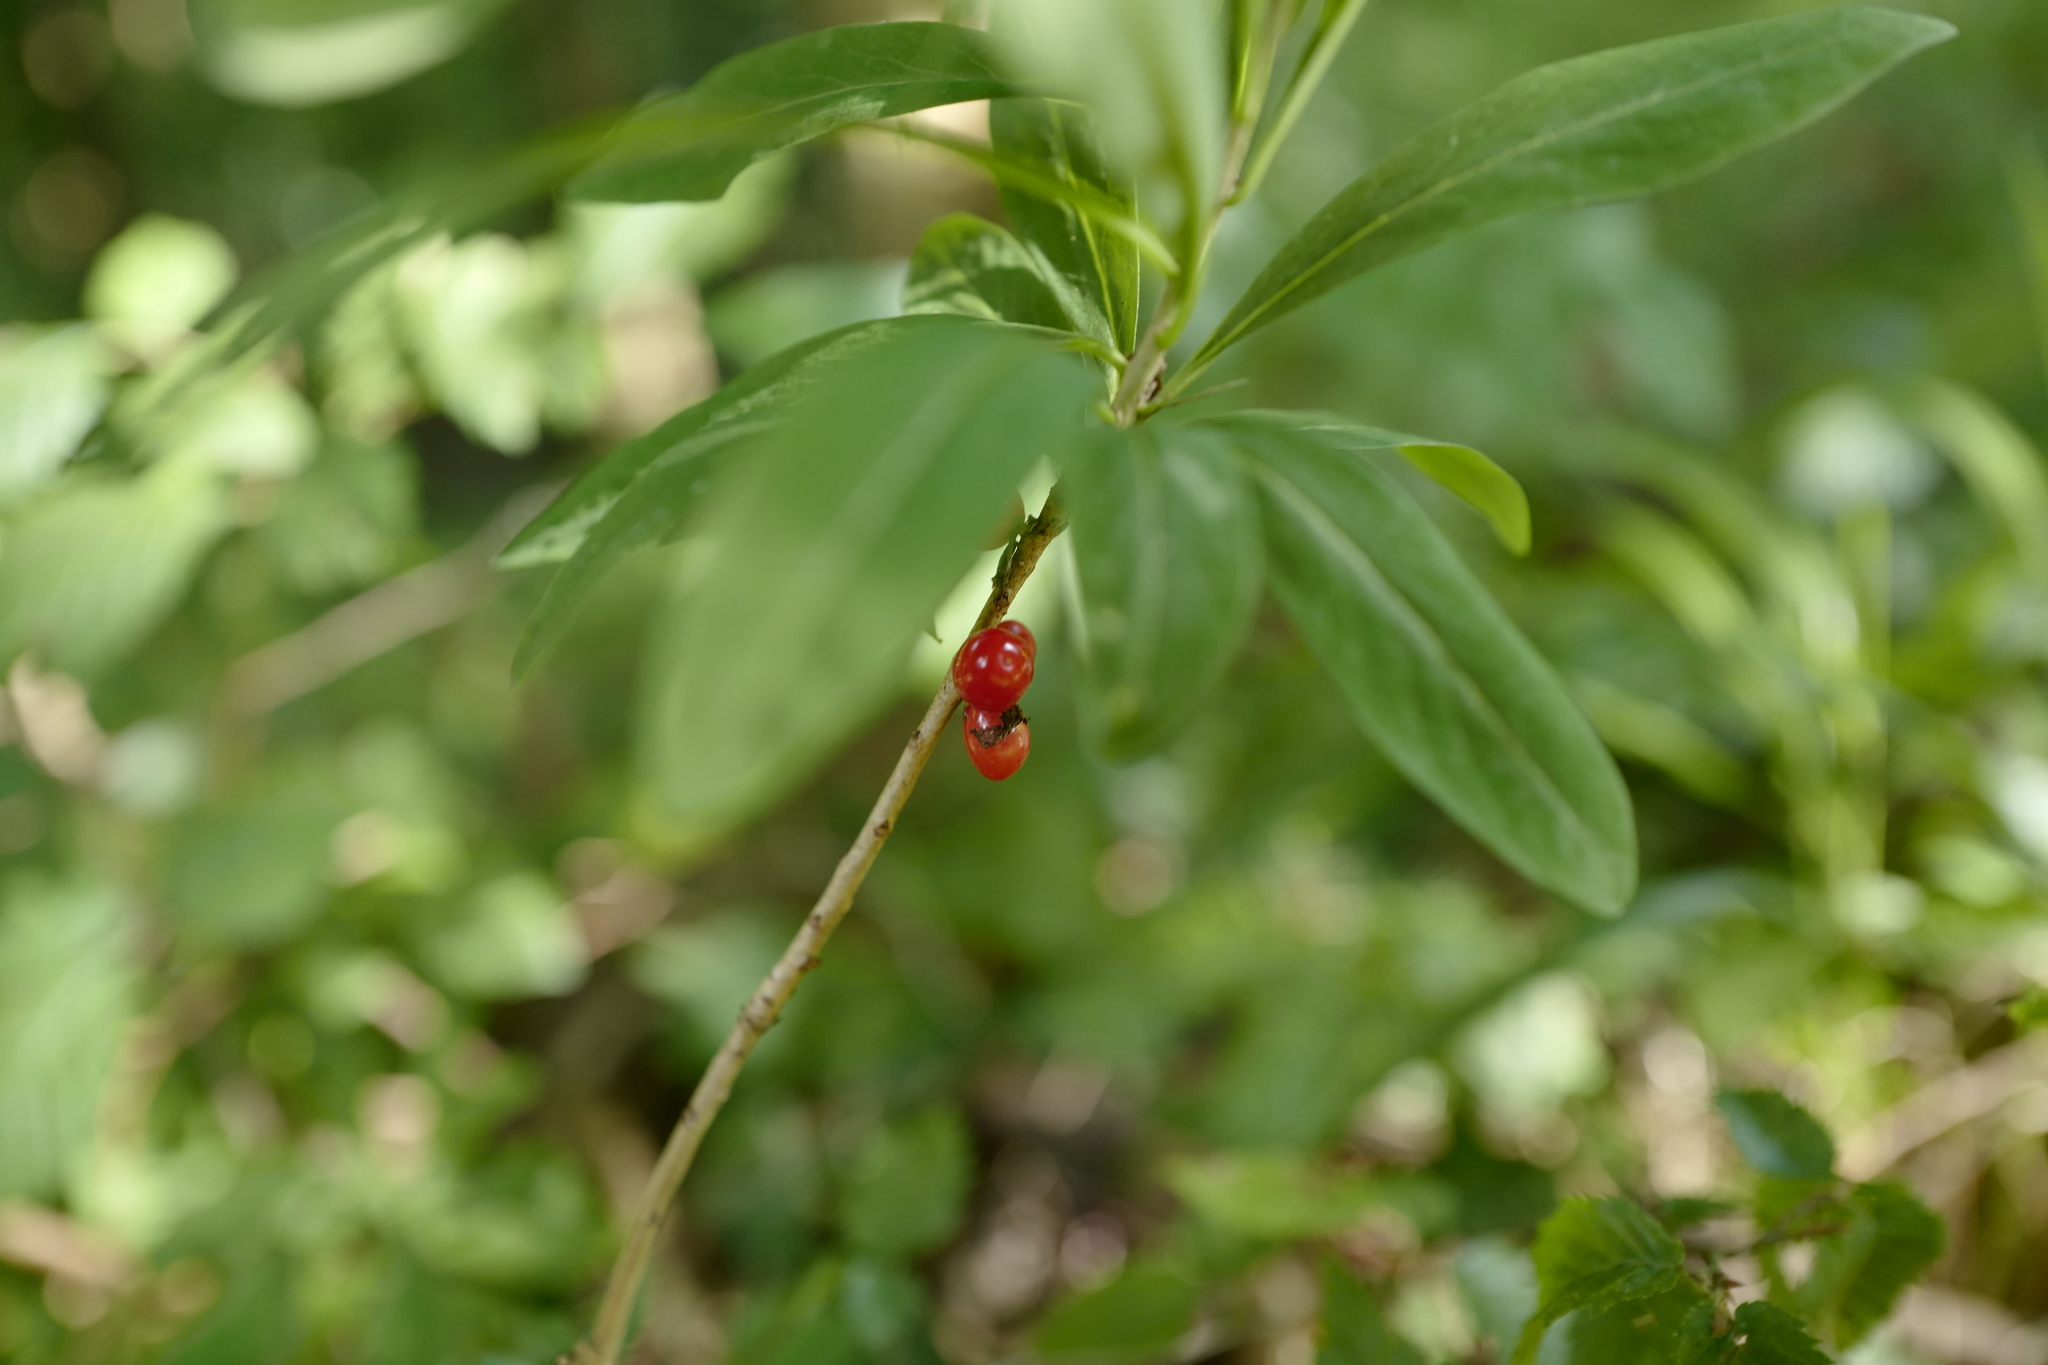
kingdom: Plantae
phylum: Tracheophyta
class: Magnoliopsida
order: Malvales
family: Thymelaeaceae
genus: Daphne
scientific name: Daphne mezereum
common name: Mezereon
